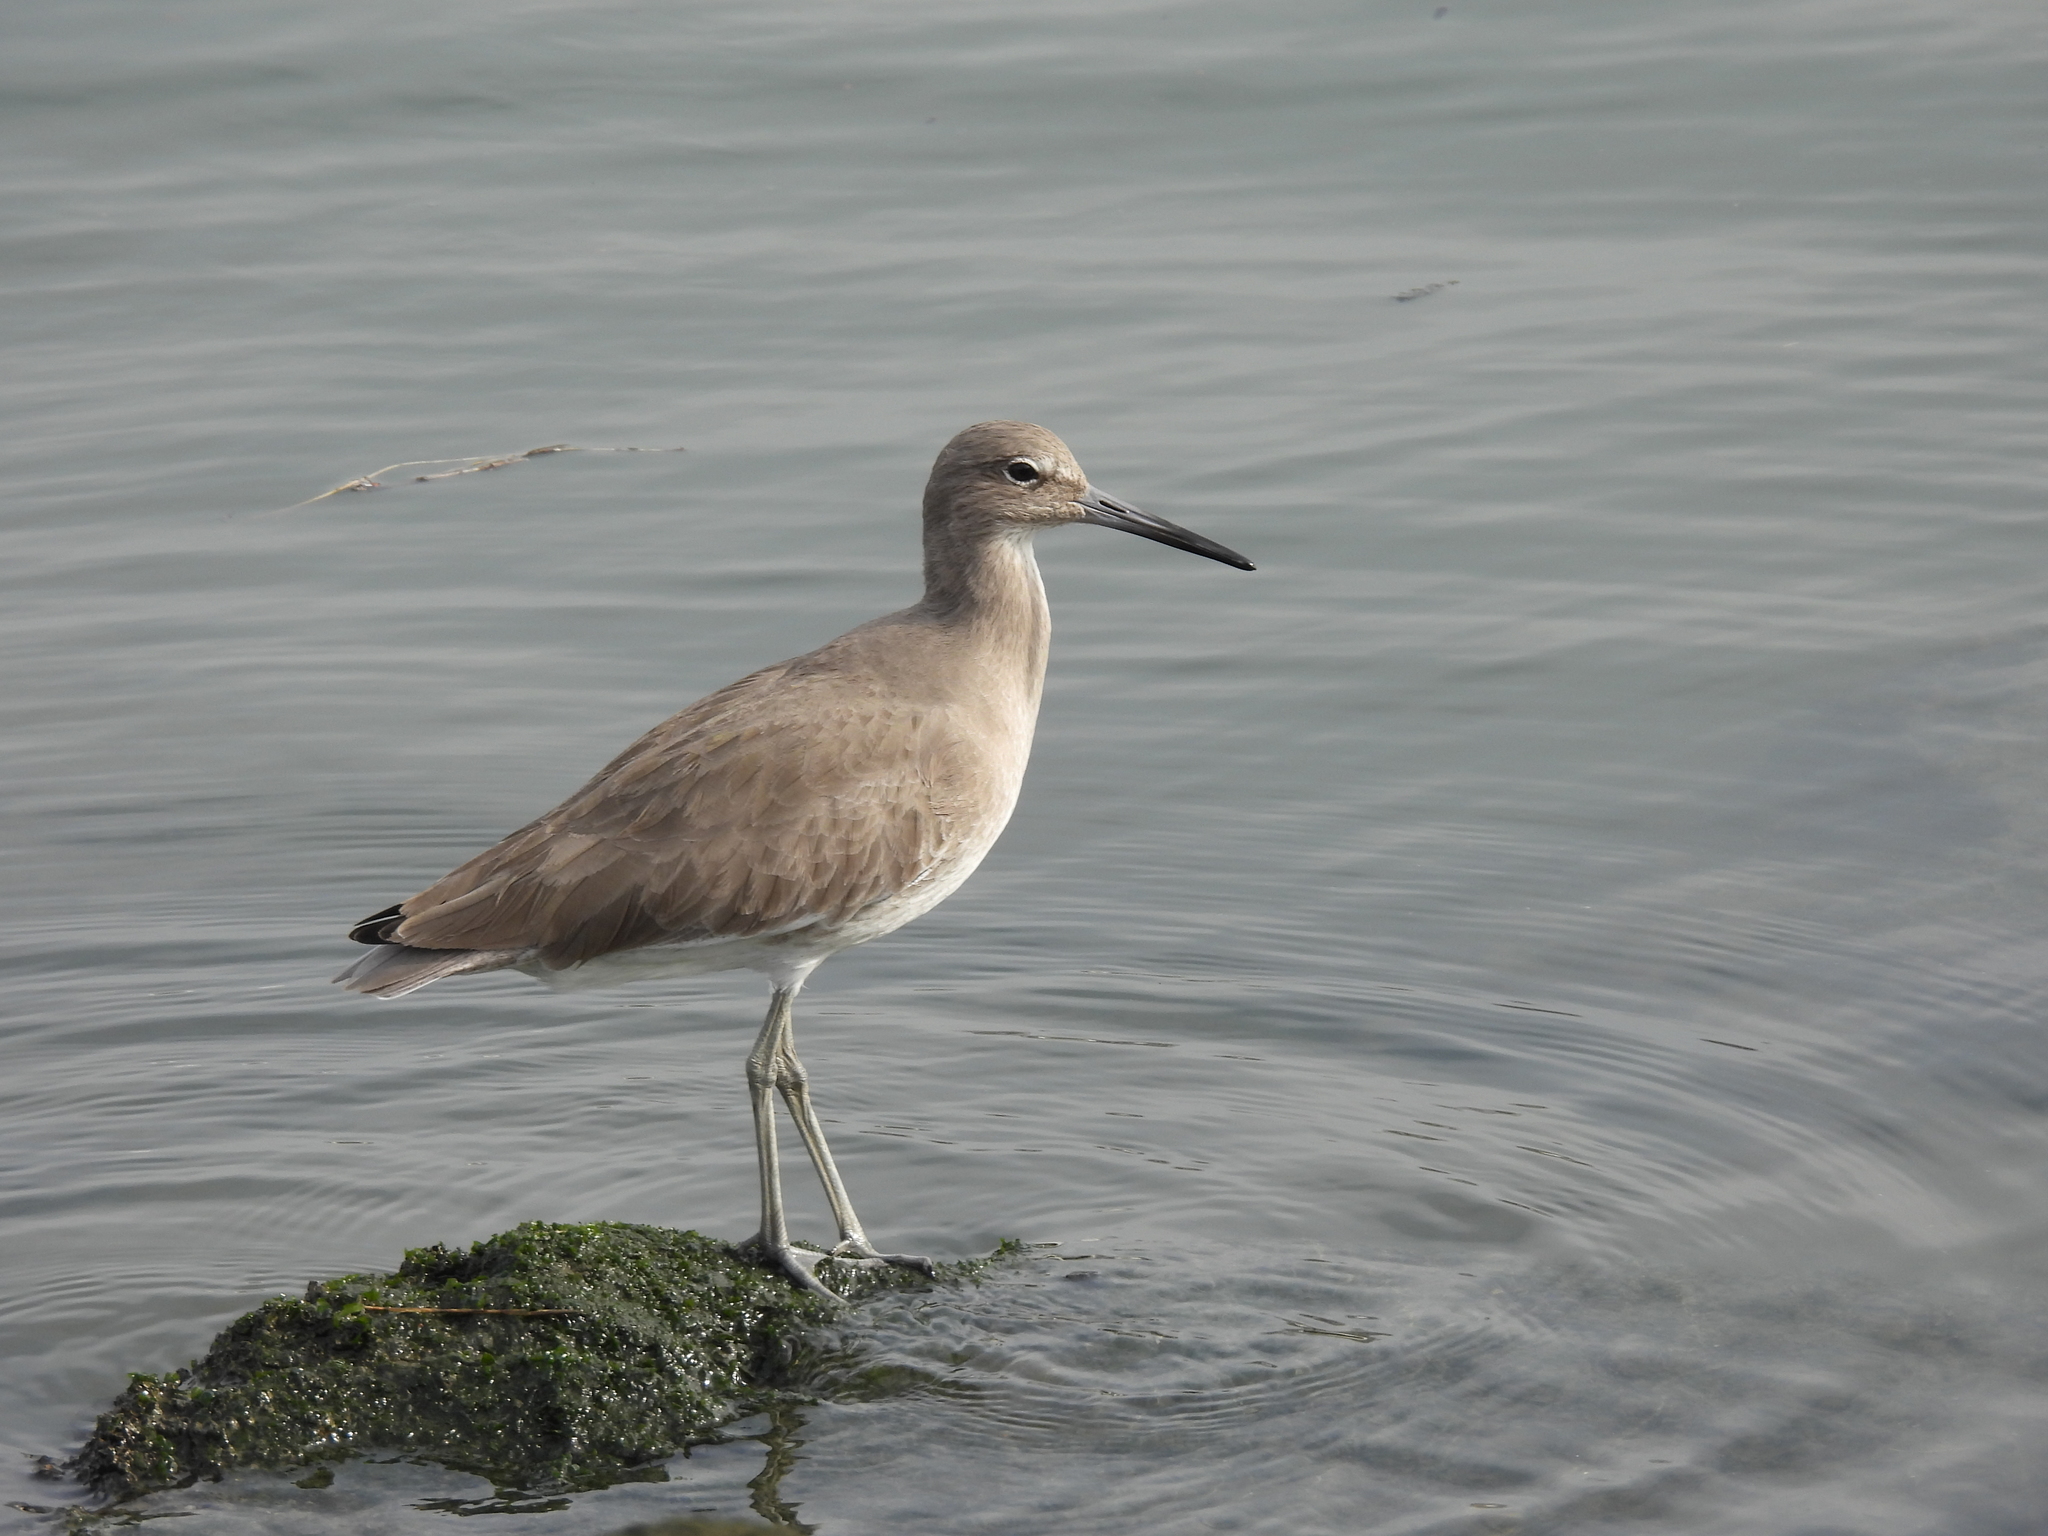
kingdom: Animalia
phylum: Chordata
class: Aves
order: Charadriiformes
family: Scolopacidae
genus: Tringa
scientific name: Tringa semipalmata
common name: Willet
